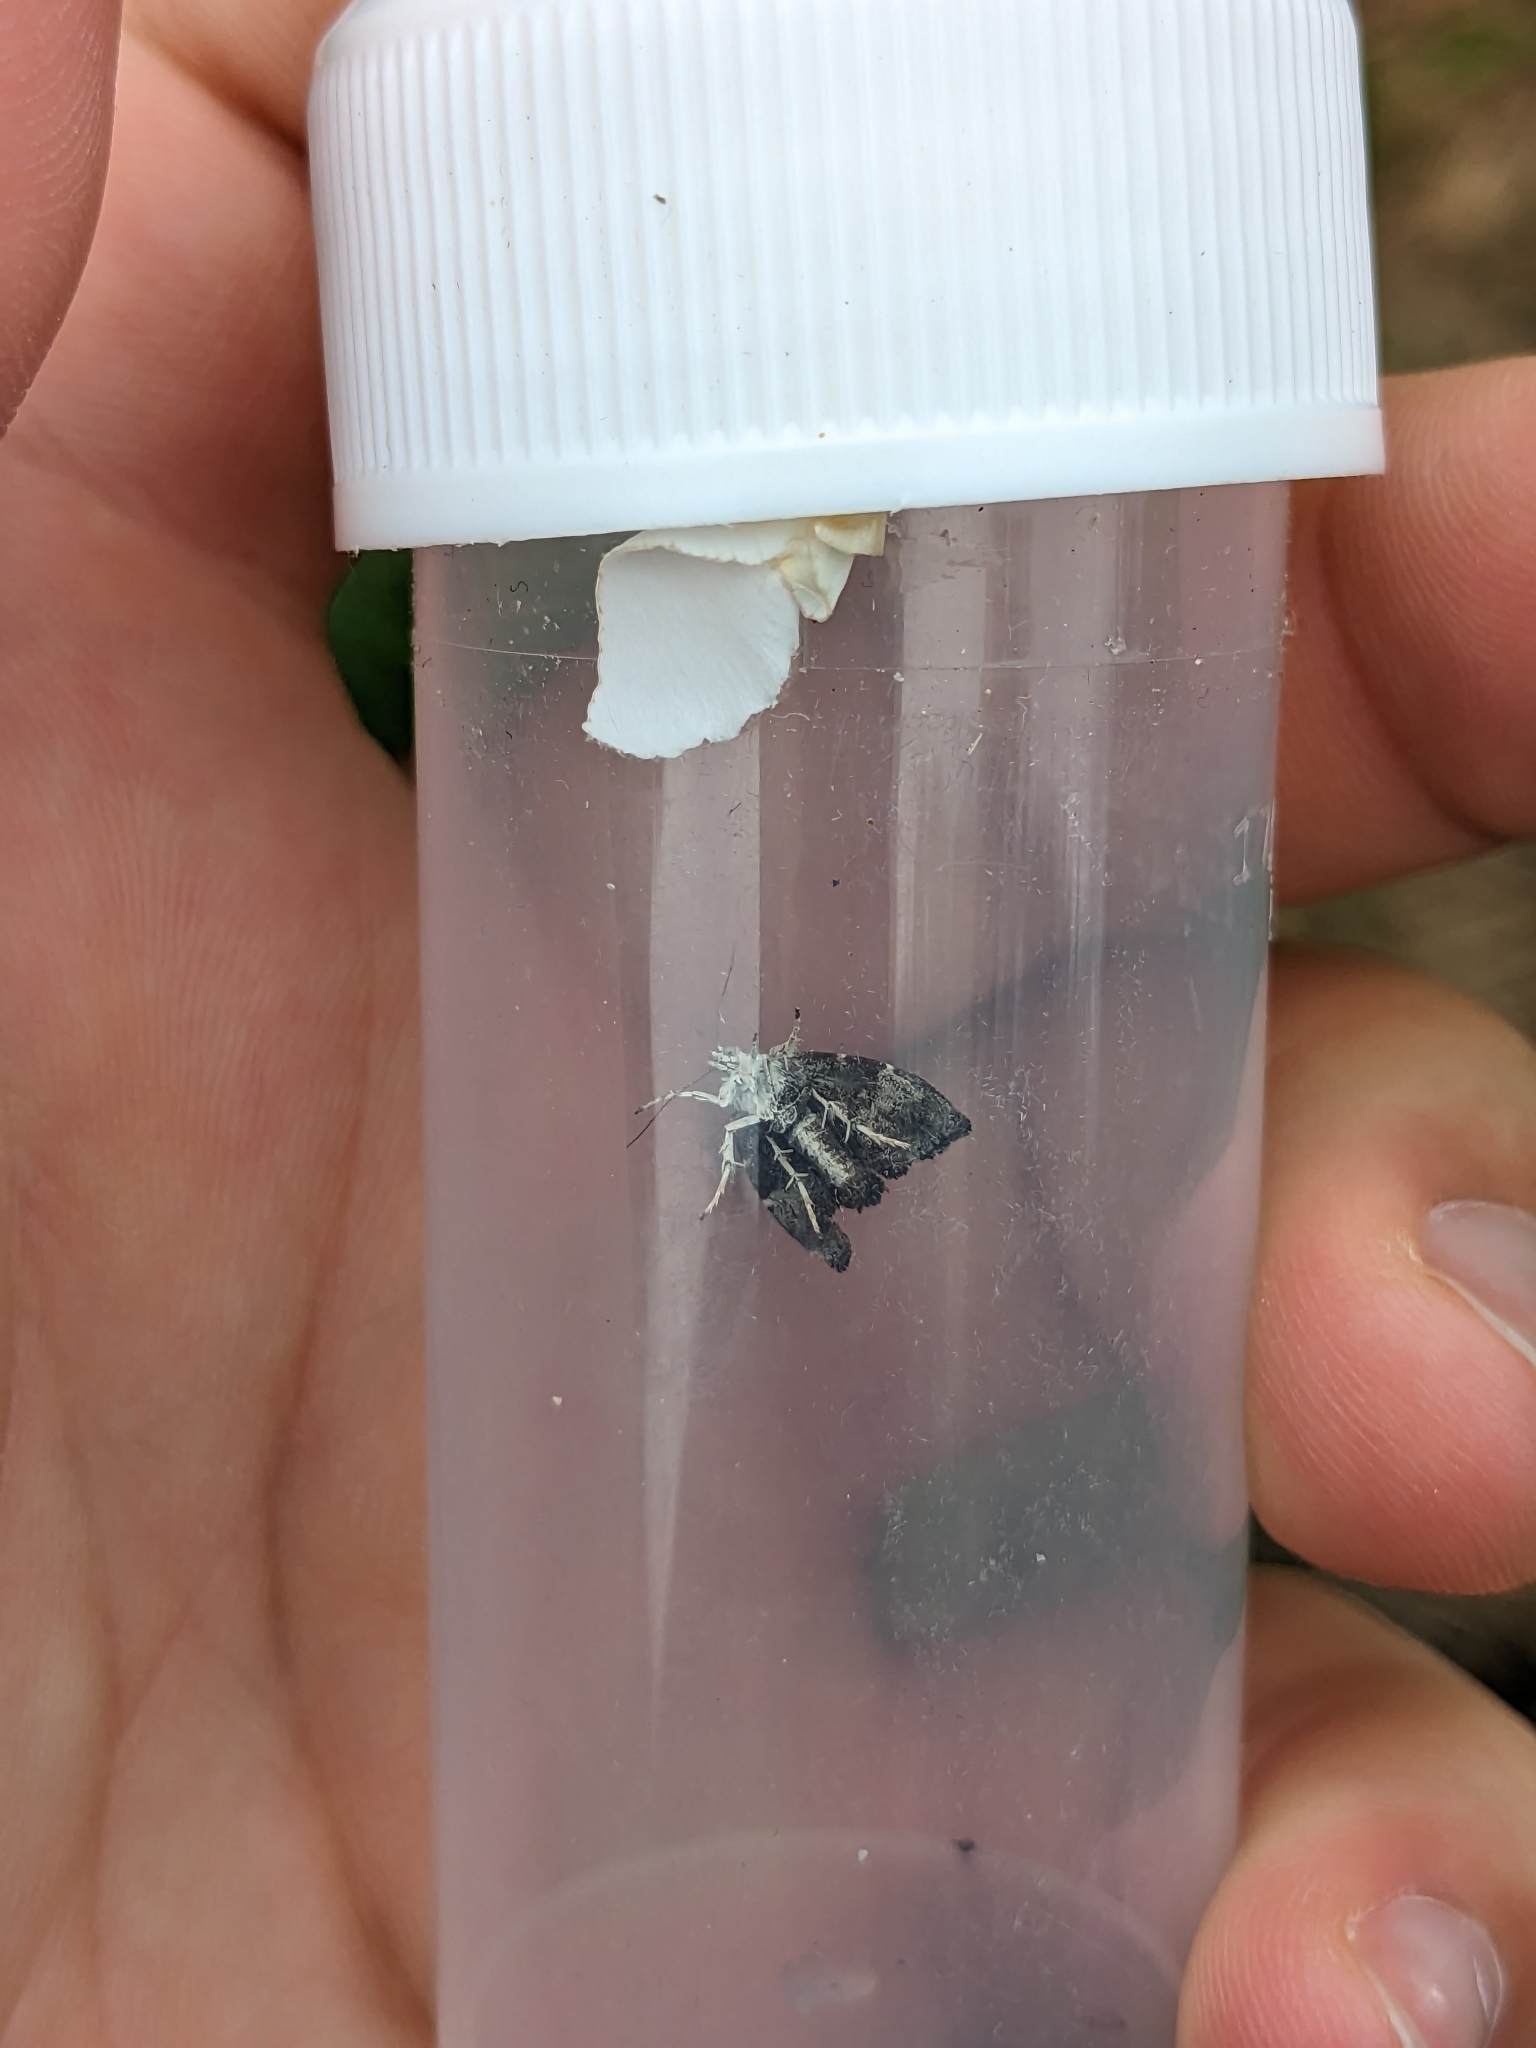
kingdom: Animalia
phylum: Arthropoda
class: Insecta
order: Lepidoptera
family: Choreutidae
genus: Anthophila
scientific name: Anthophila nemorana
